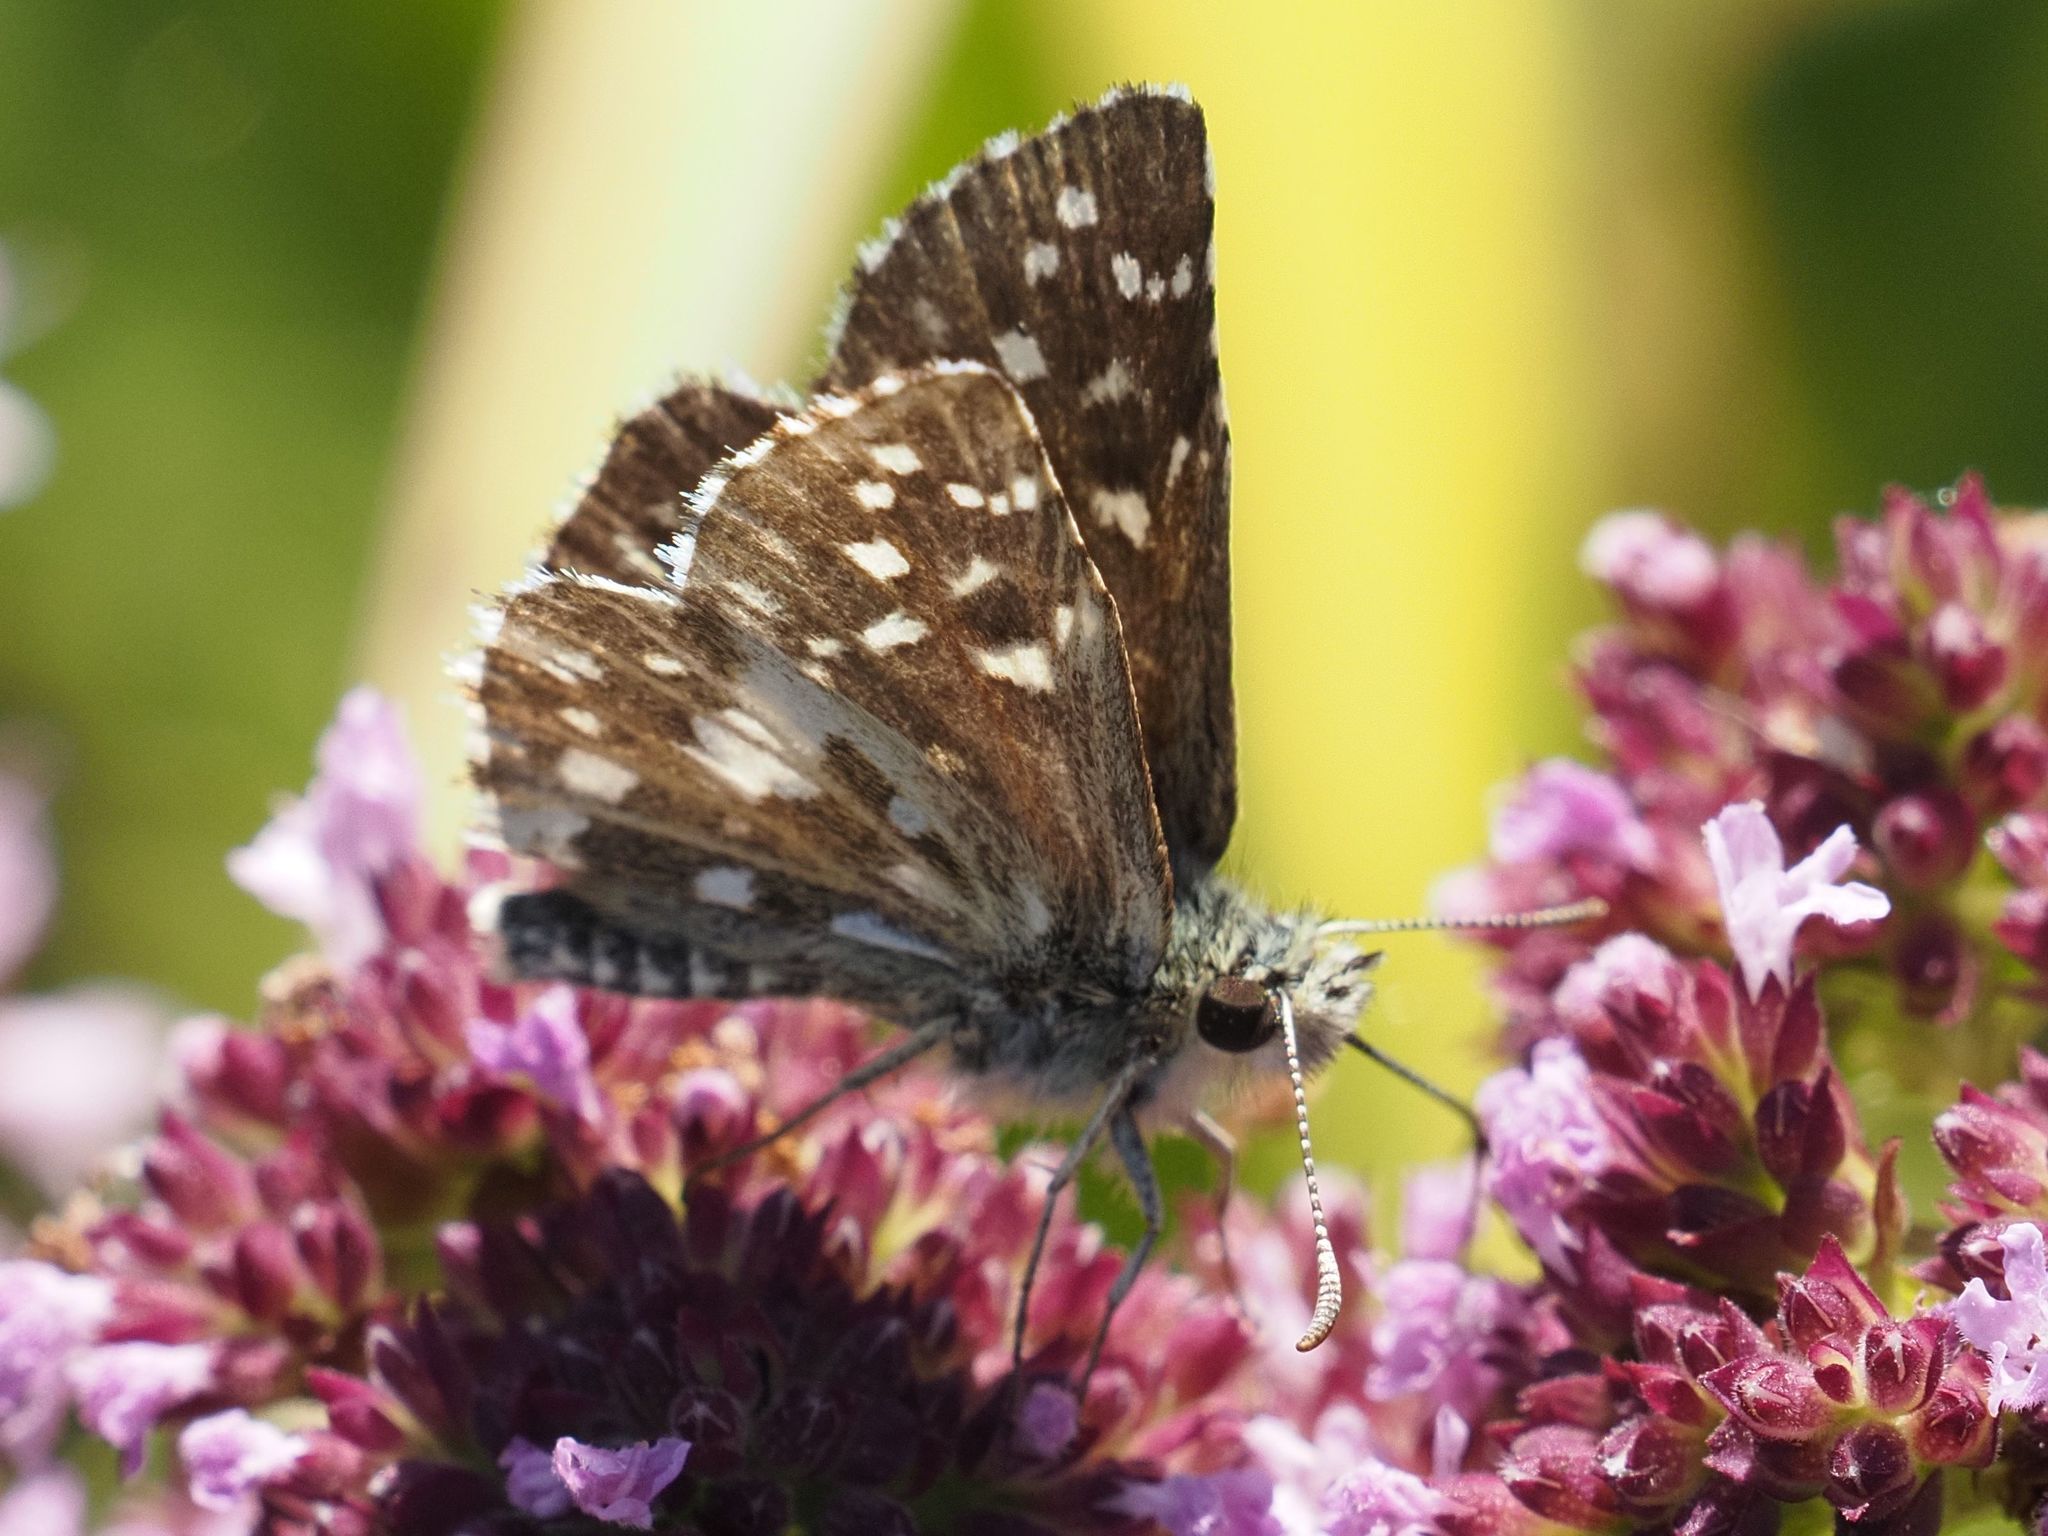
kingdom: Animalia
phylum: Arthropoda
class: Insecta
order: Lepidoptera
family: Hesperiidae
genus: Pyrgus
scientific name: Pyrgus malvae
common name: Grizzled skipper
